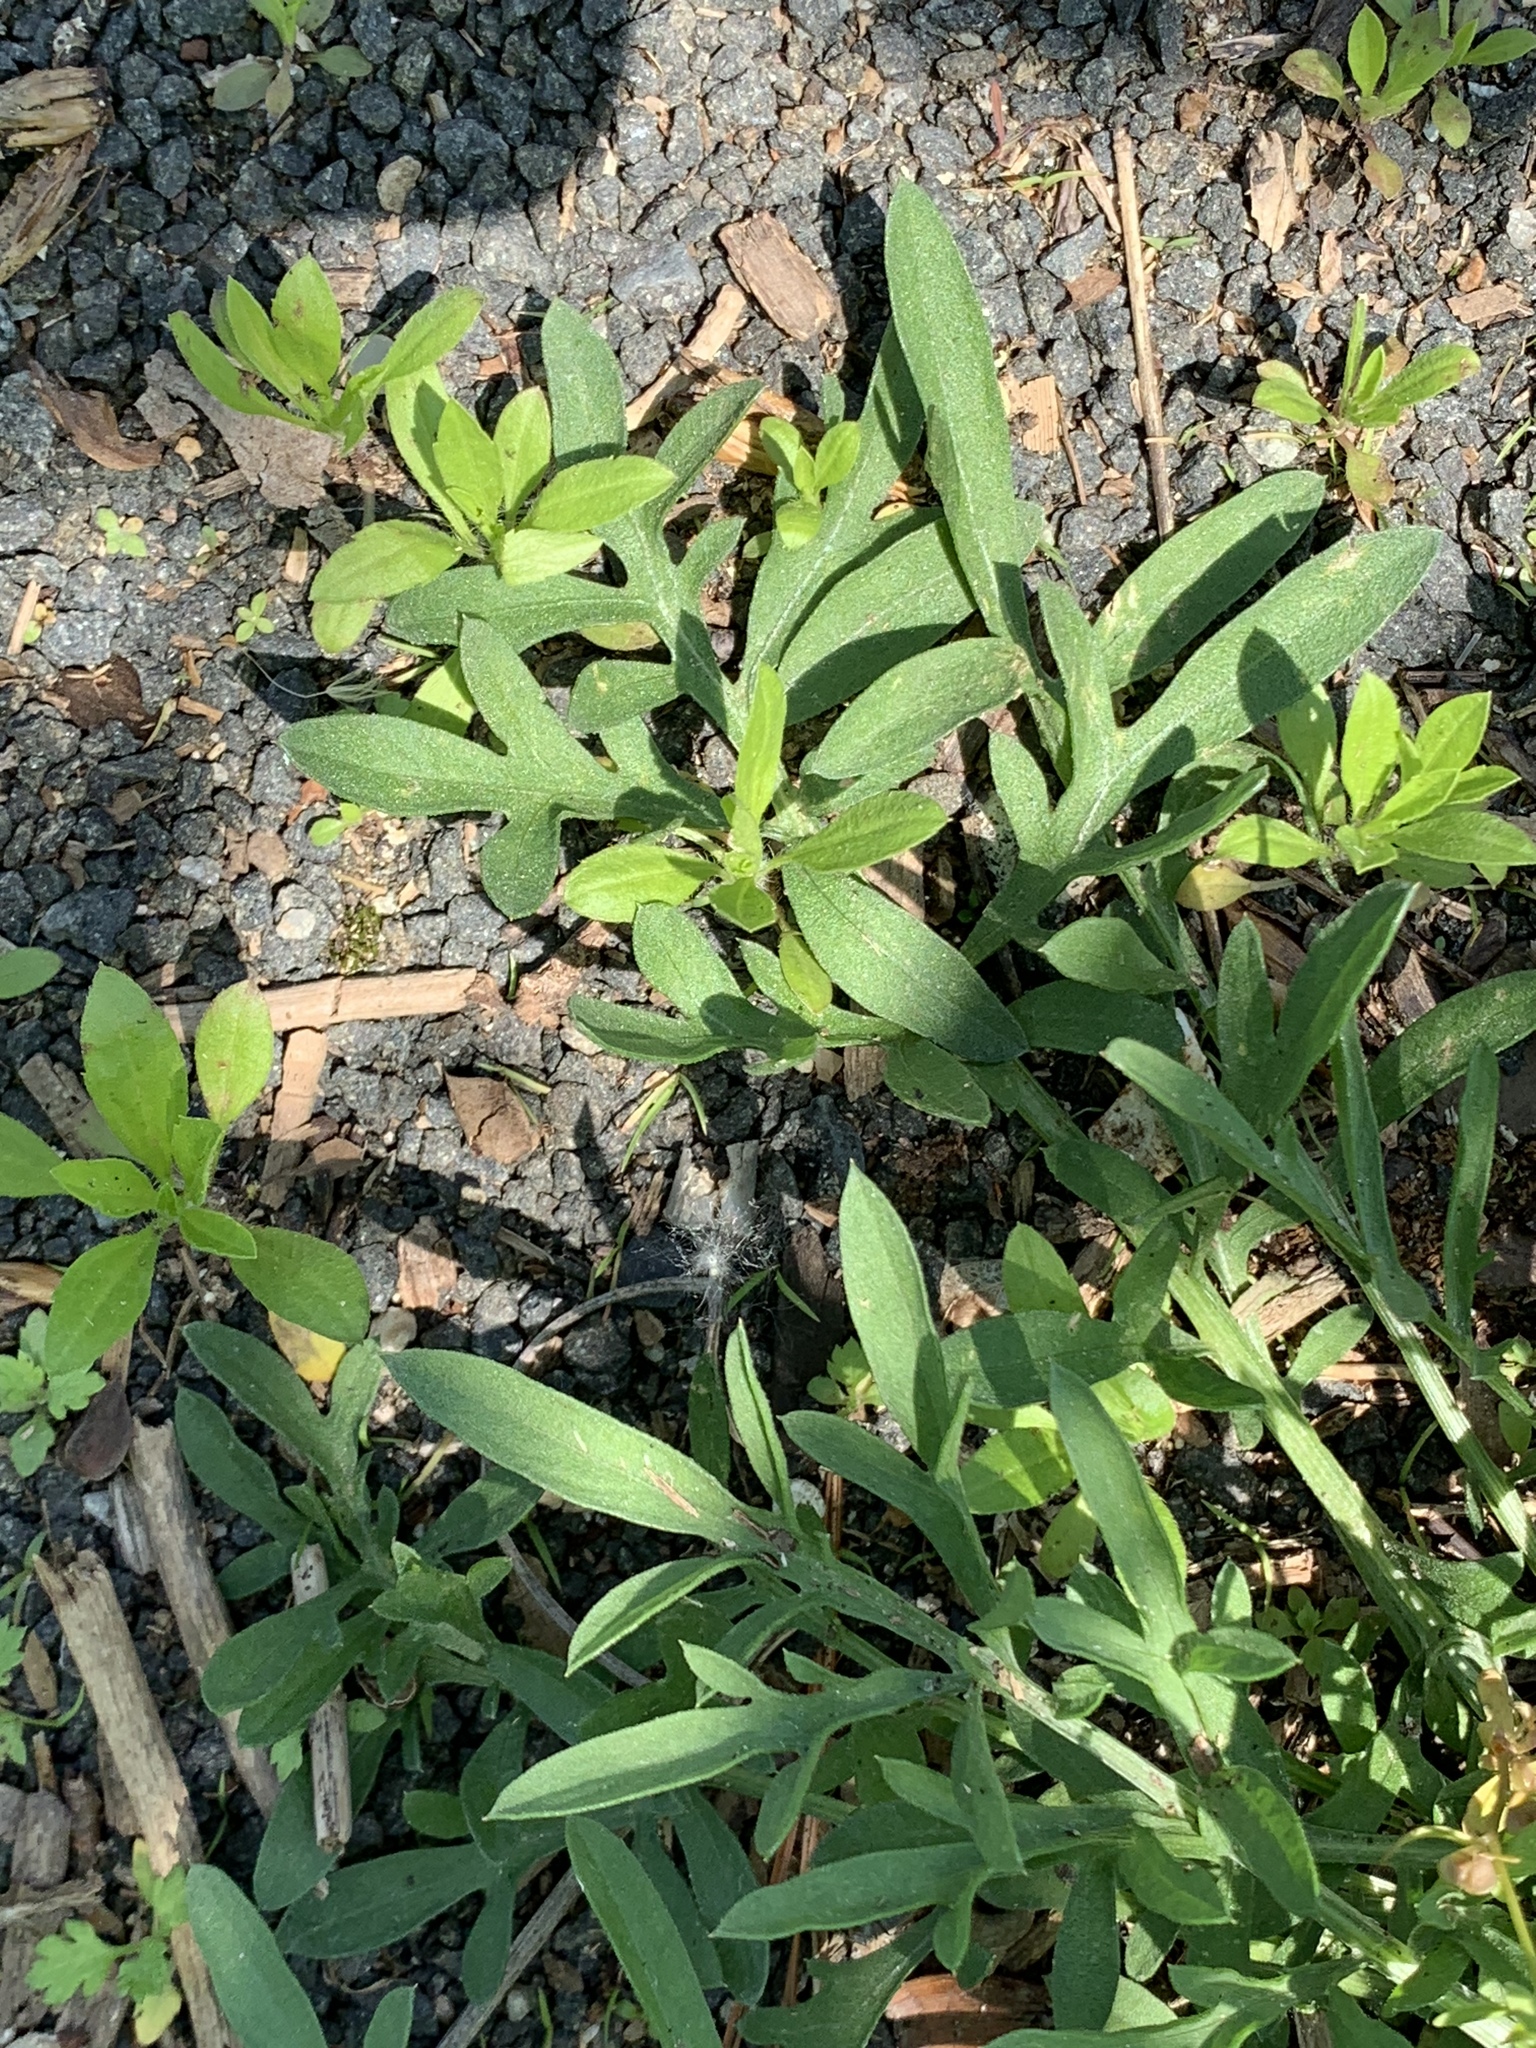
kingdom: Plantae
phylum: Tracheophyta
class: Magnoliopsida
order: Asterales
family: Asteraceae
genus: Centaurea
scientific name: Centaurea stoebe
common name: Spotted knapweed
